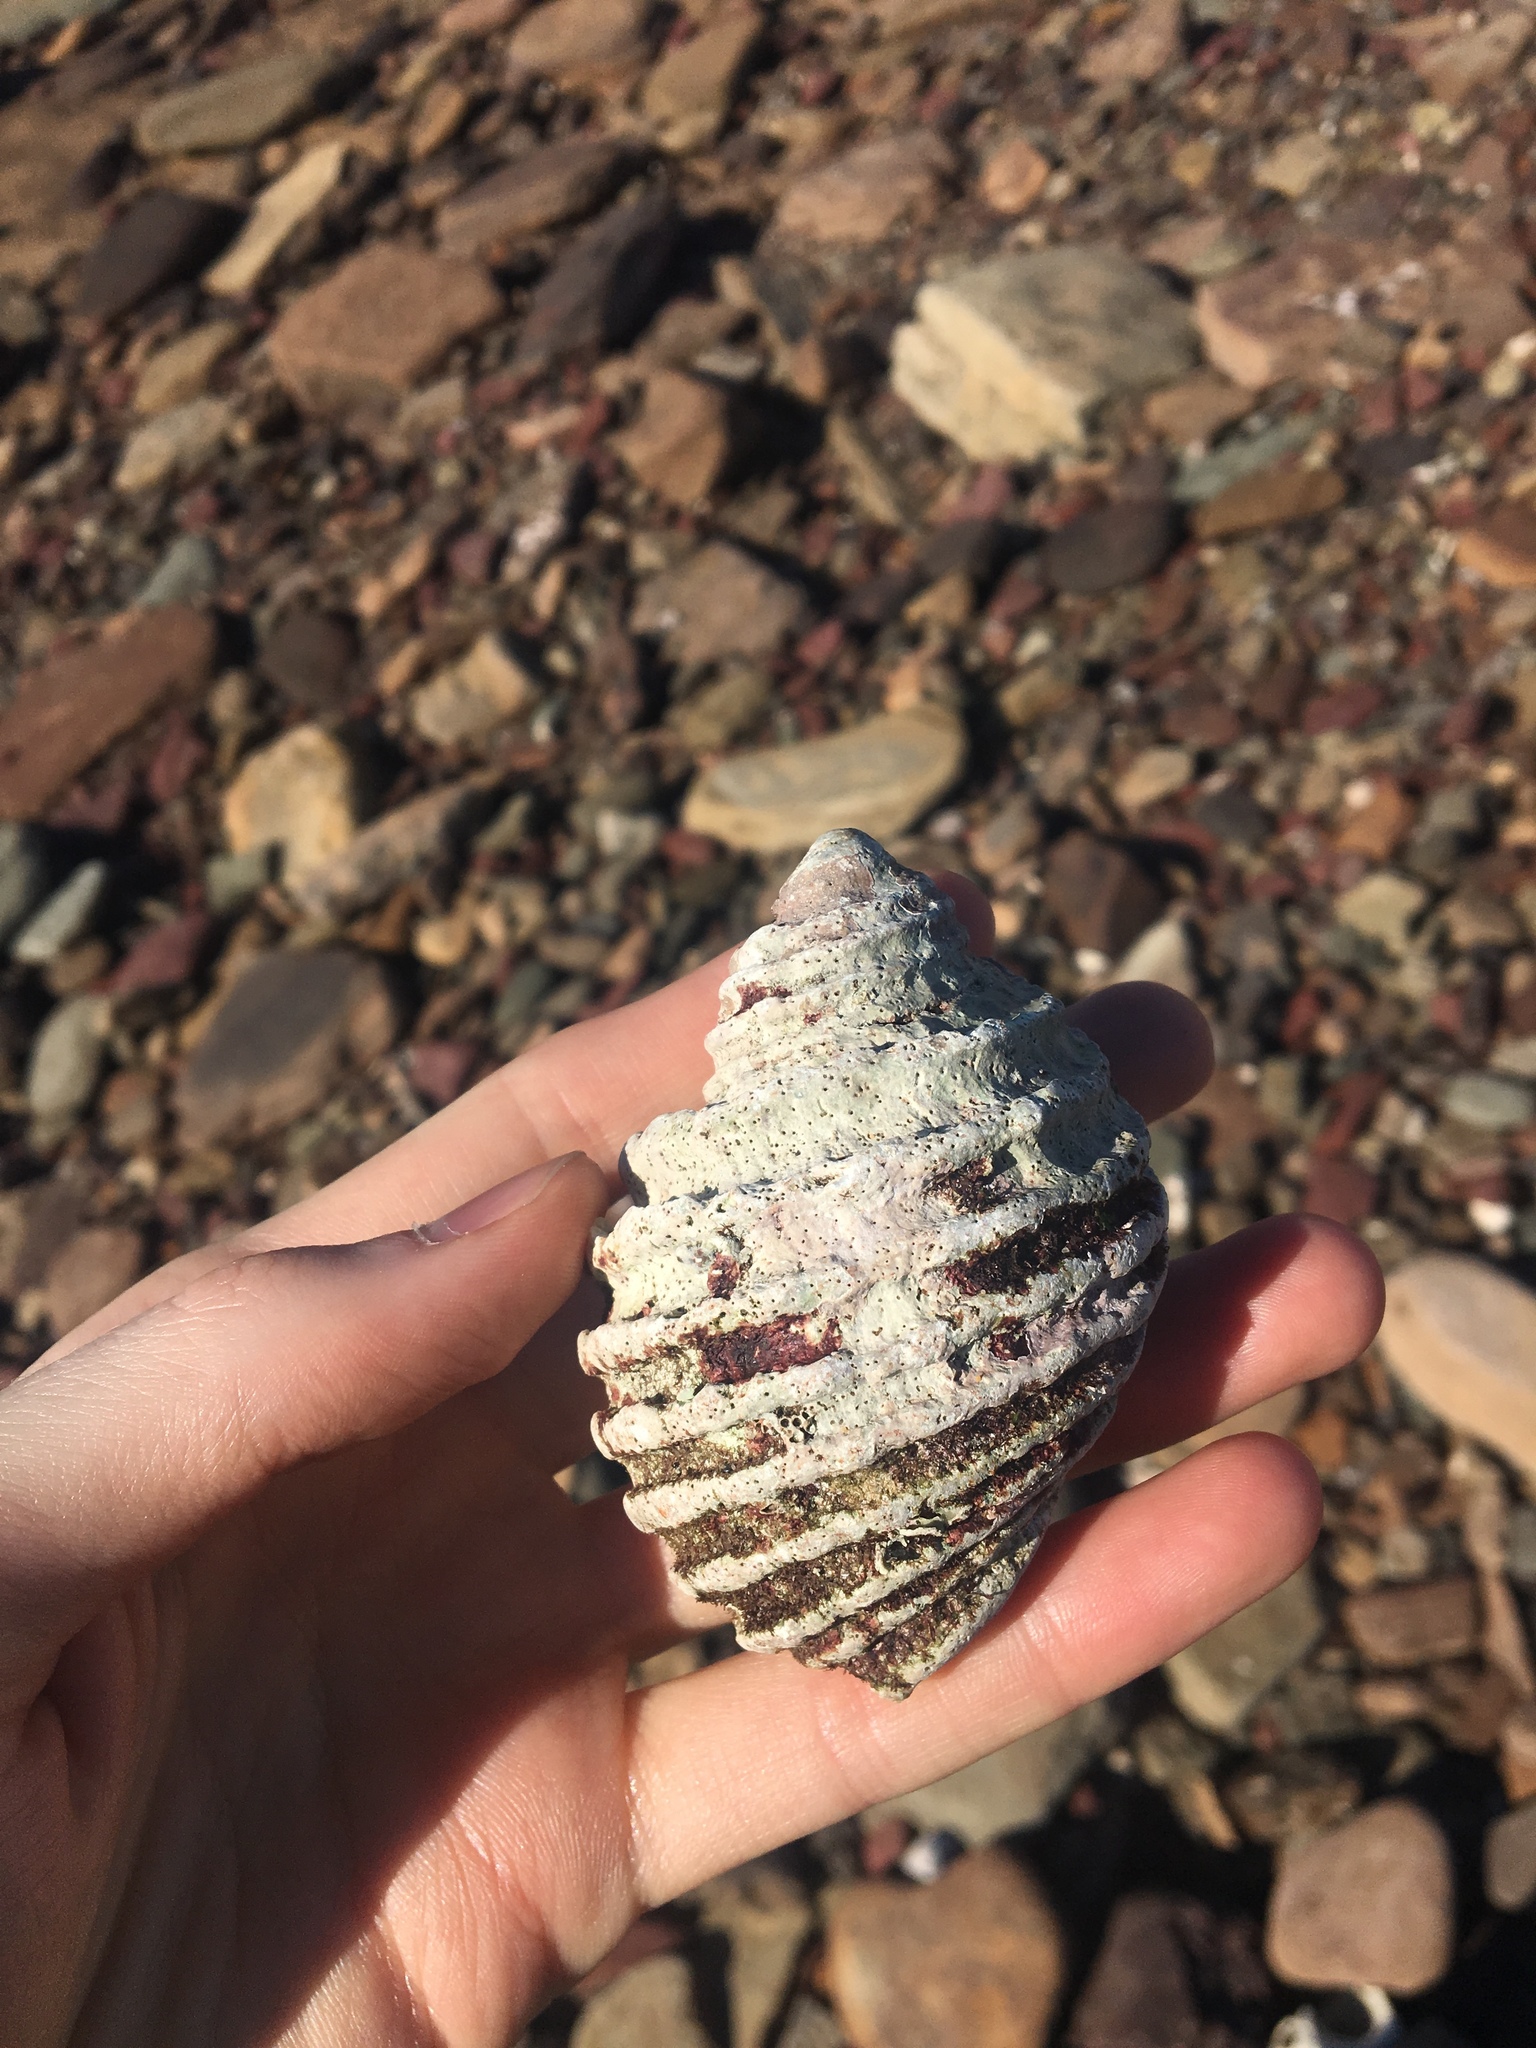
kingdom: Animalia
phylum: Mollusca
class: Gastropoda
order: Neogastropoda
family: Muricidae
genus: Dicathais
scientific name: Dicathais orbita
